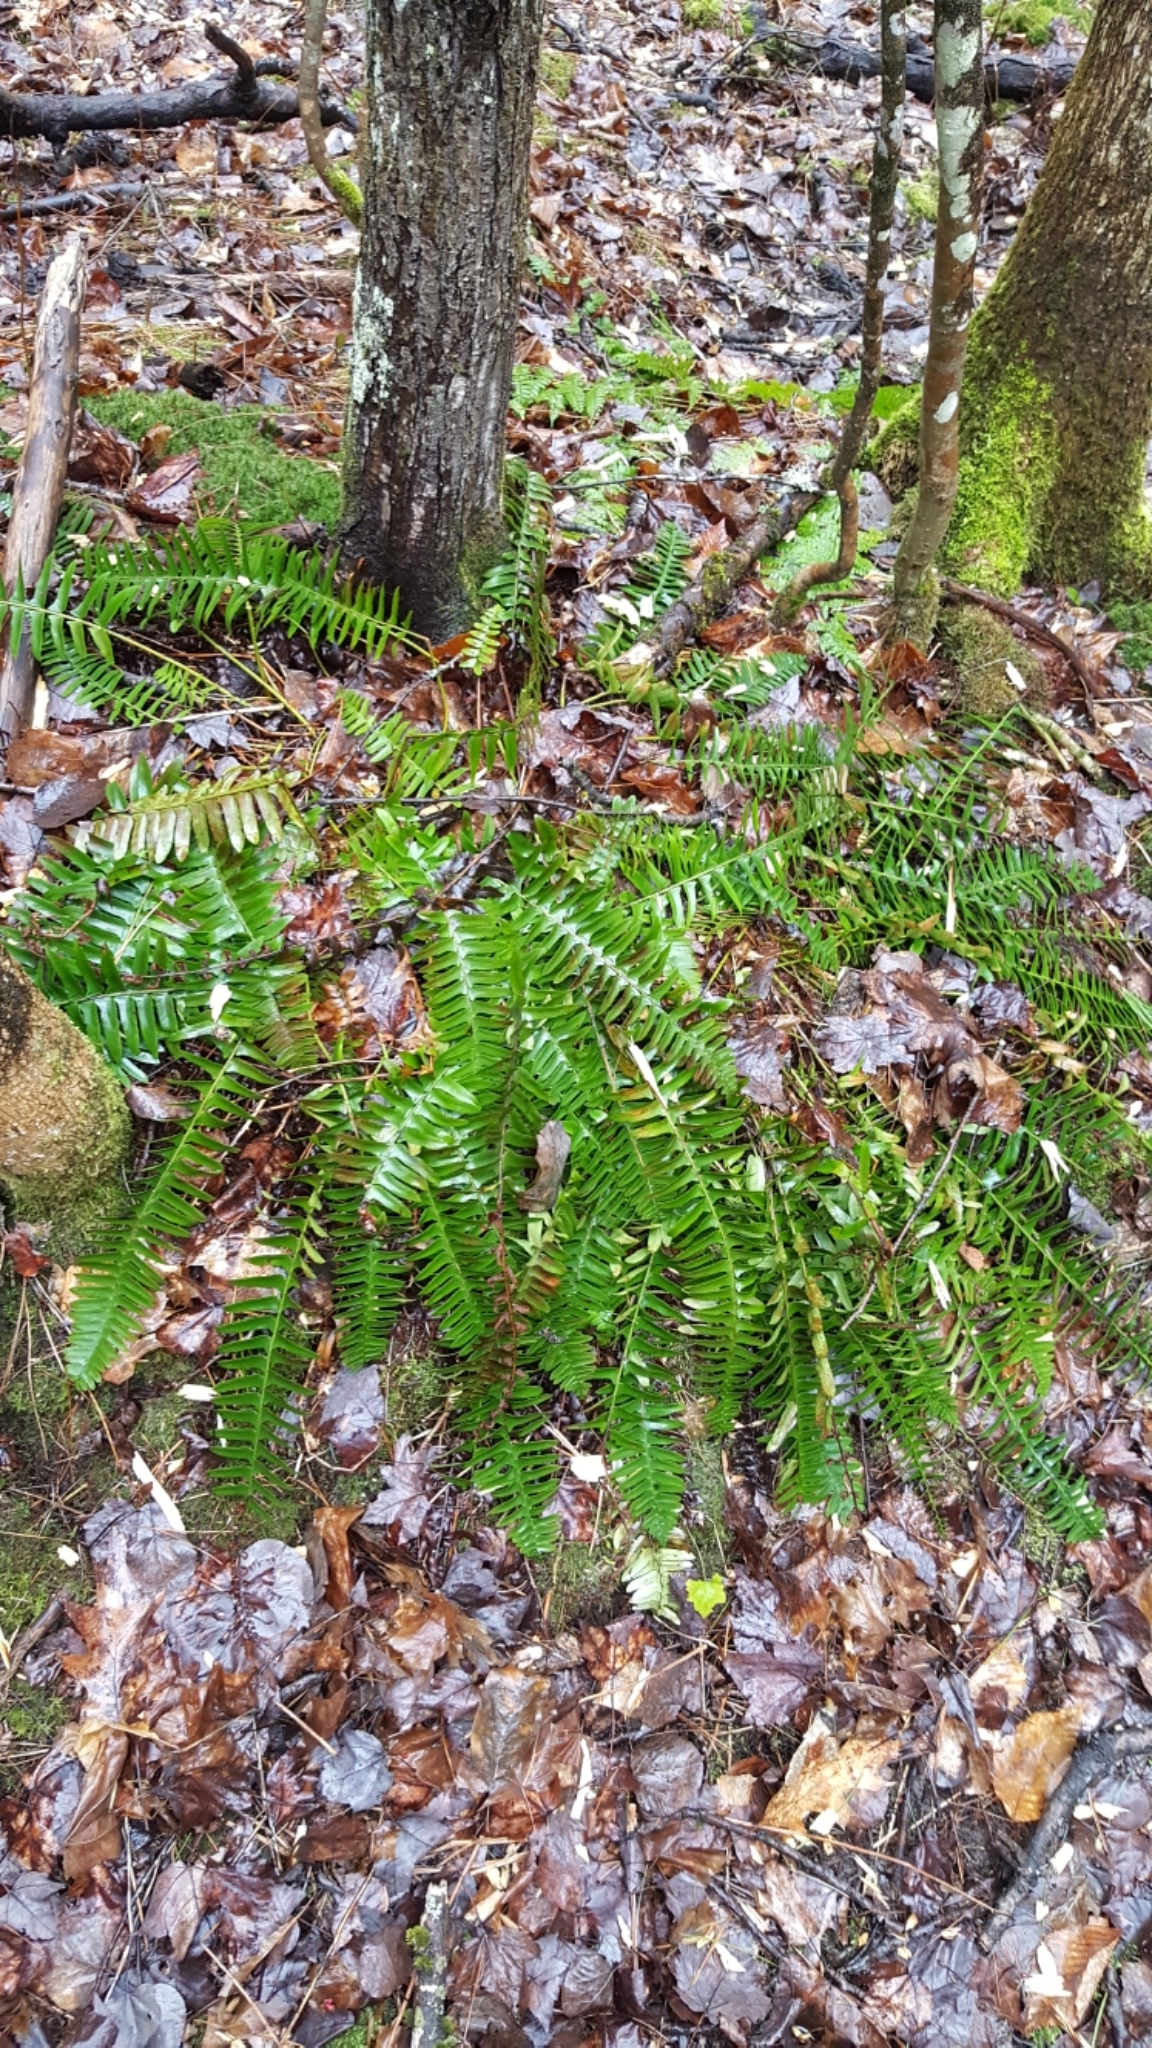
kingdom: Plantae
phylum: Tracheophyta
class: Polypodiopsida
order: Polypodiales
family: Dryopteridaceae
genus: Polystichum
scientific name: Polystichum acrostichoides
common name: Christmas fern
